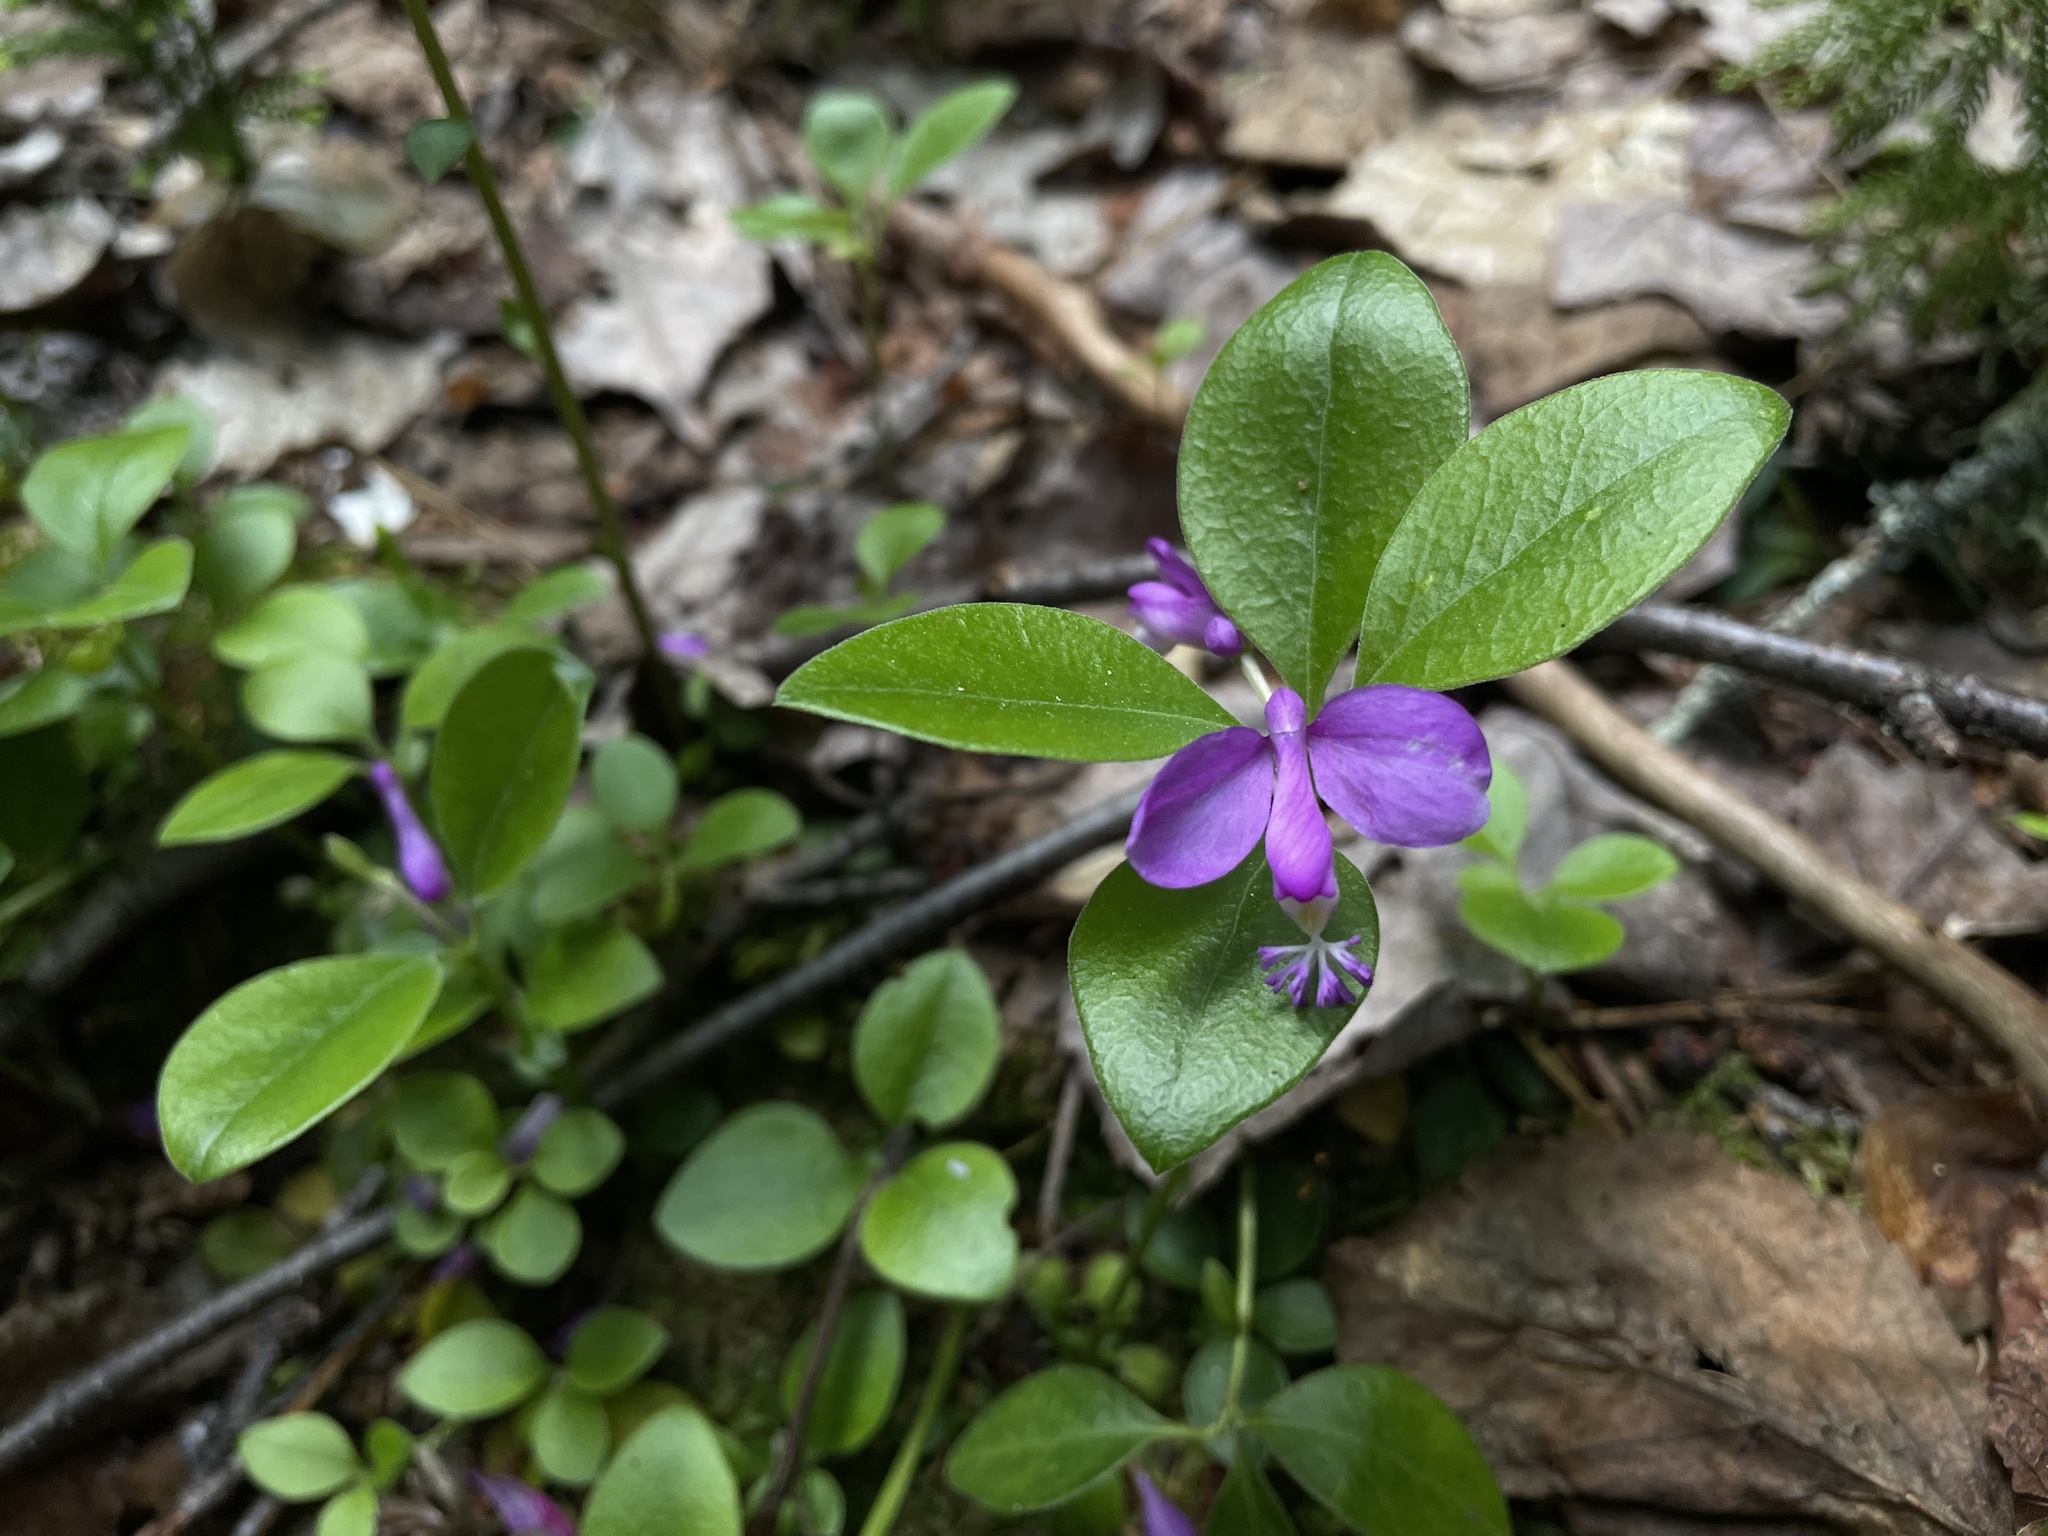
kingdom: Plantae
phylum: Tracheophyta
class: Magnoliopsida
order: Fabales
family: Polygalaceae
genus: Polygaloides
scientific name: Polygaloides paucifolia
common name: Bird-on-the-wing
